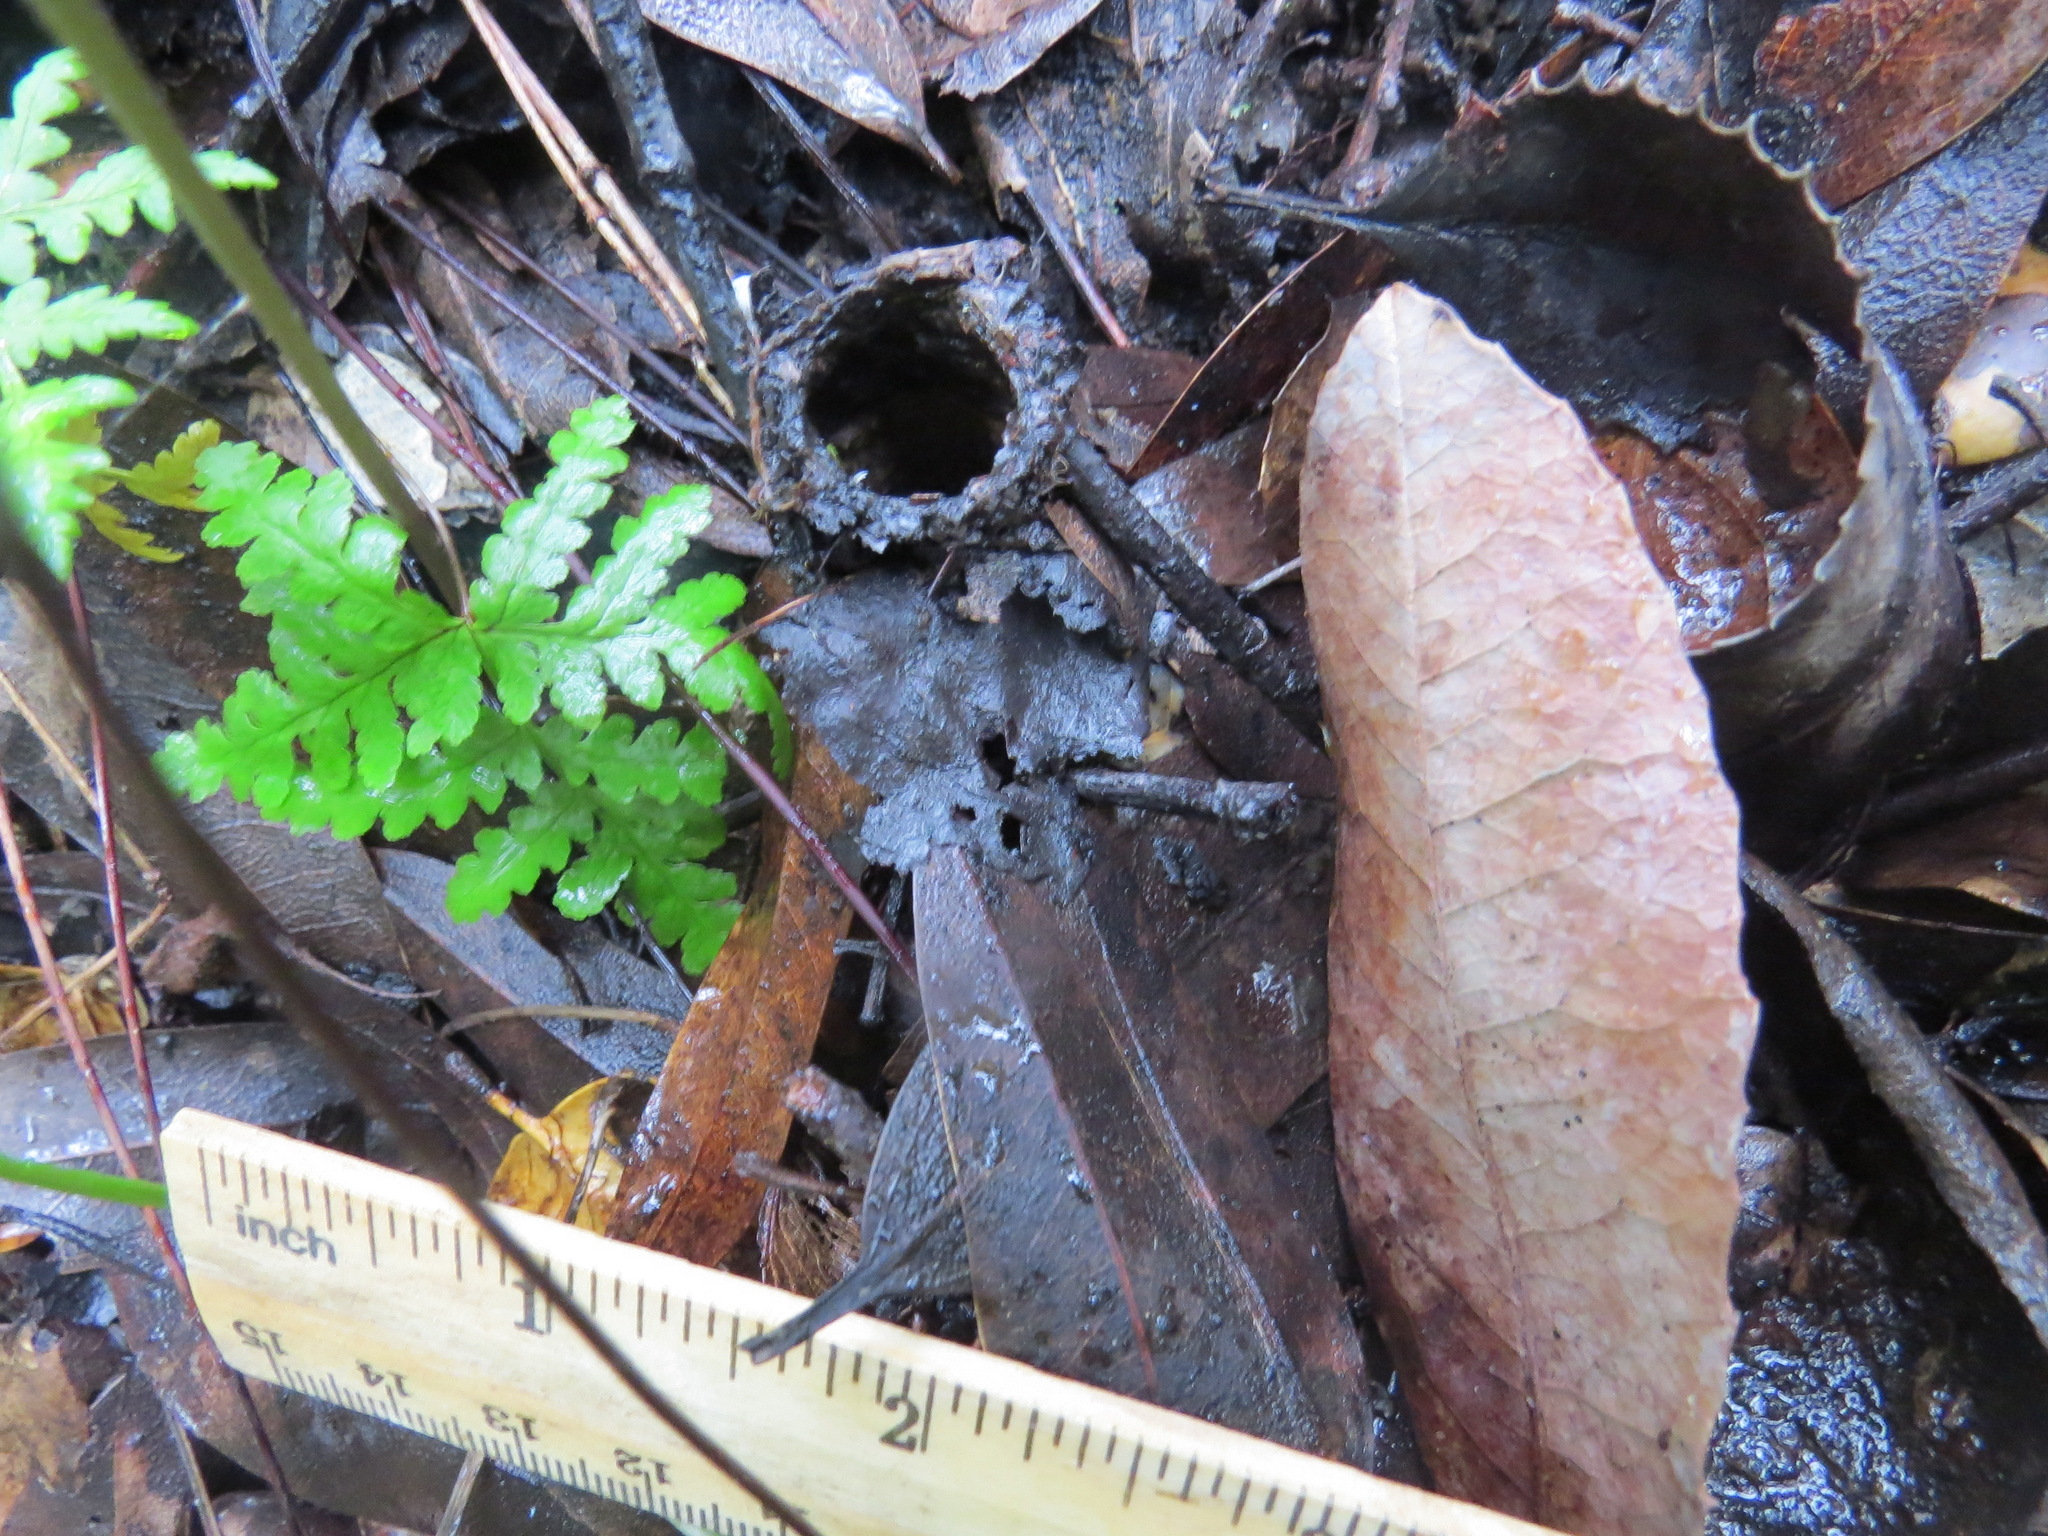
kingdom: Animalia
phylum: Arthropoda
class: Arachnida
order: Araneae
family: Antrodiaetidae
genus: Atypoides
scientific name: Atypoides riversi
